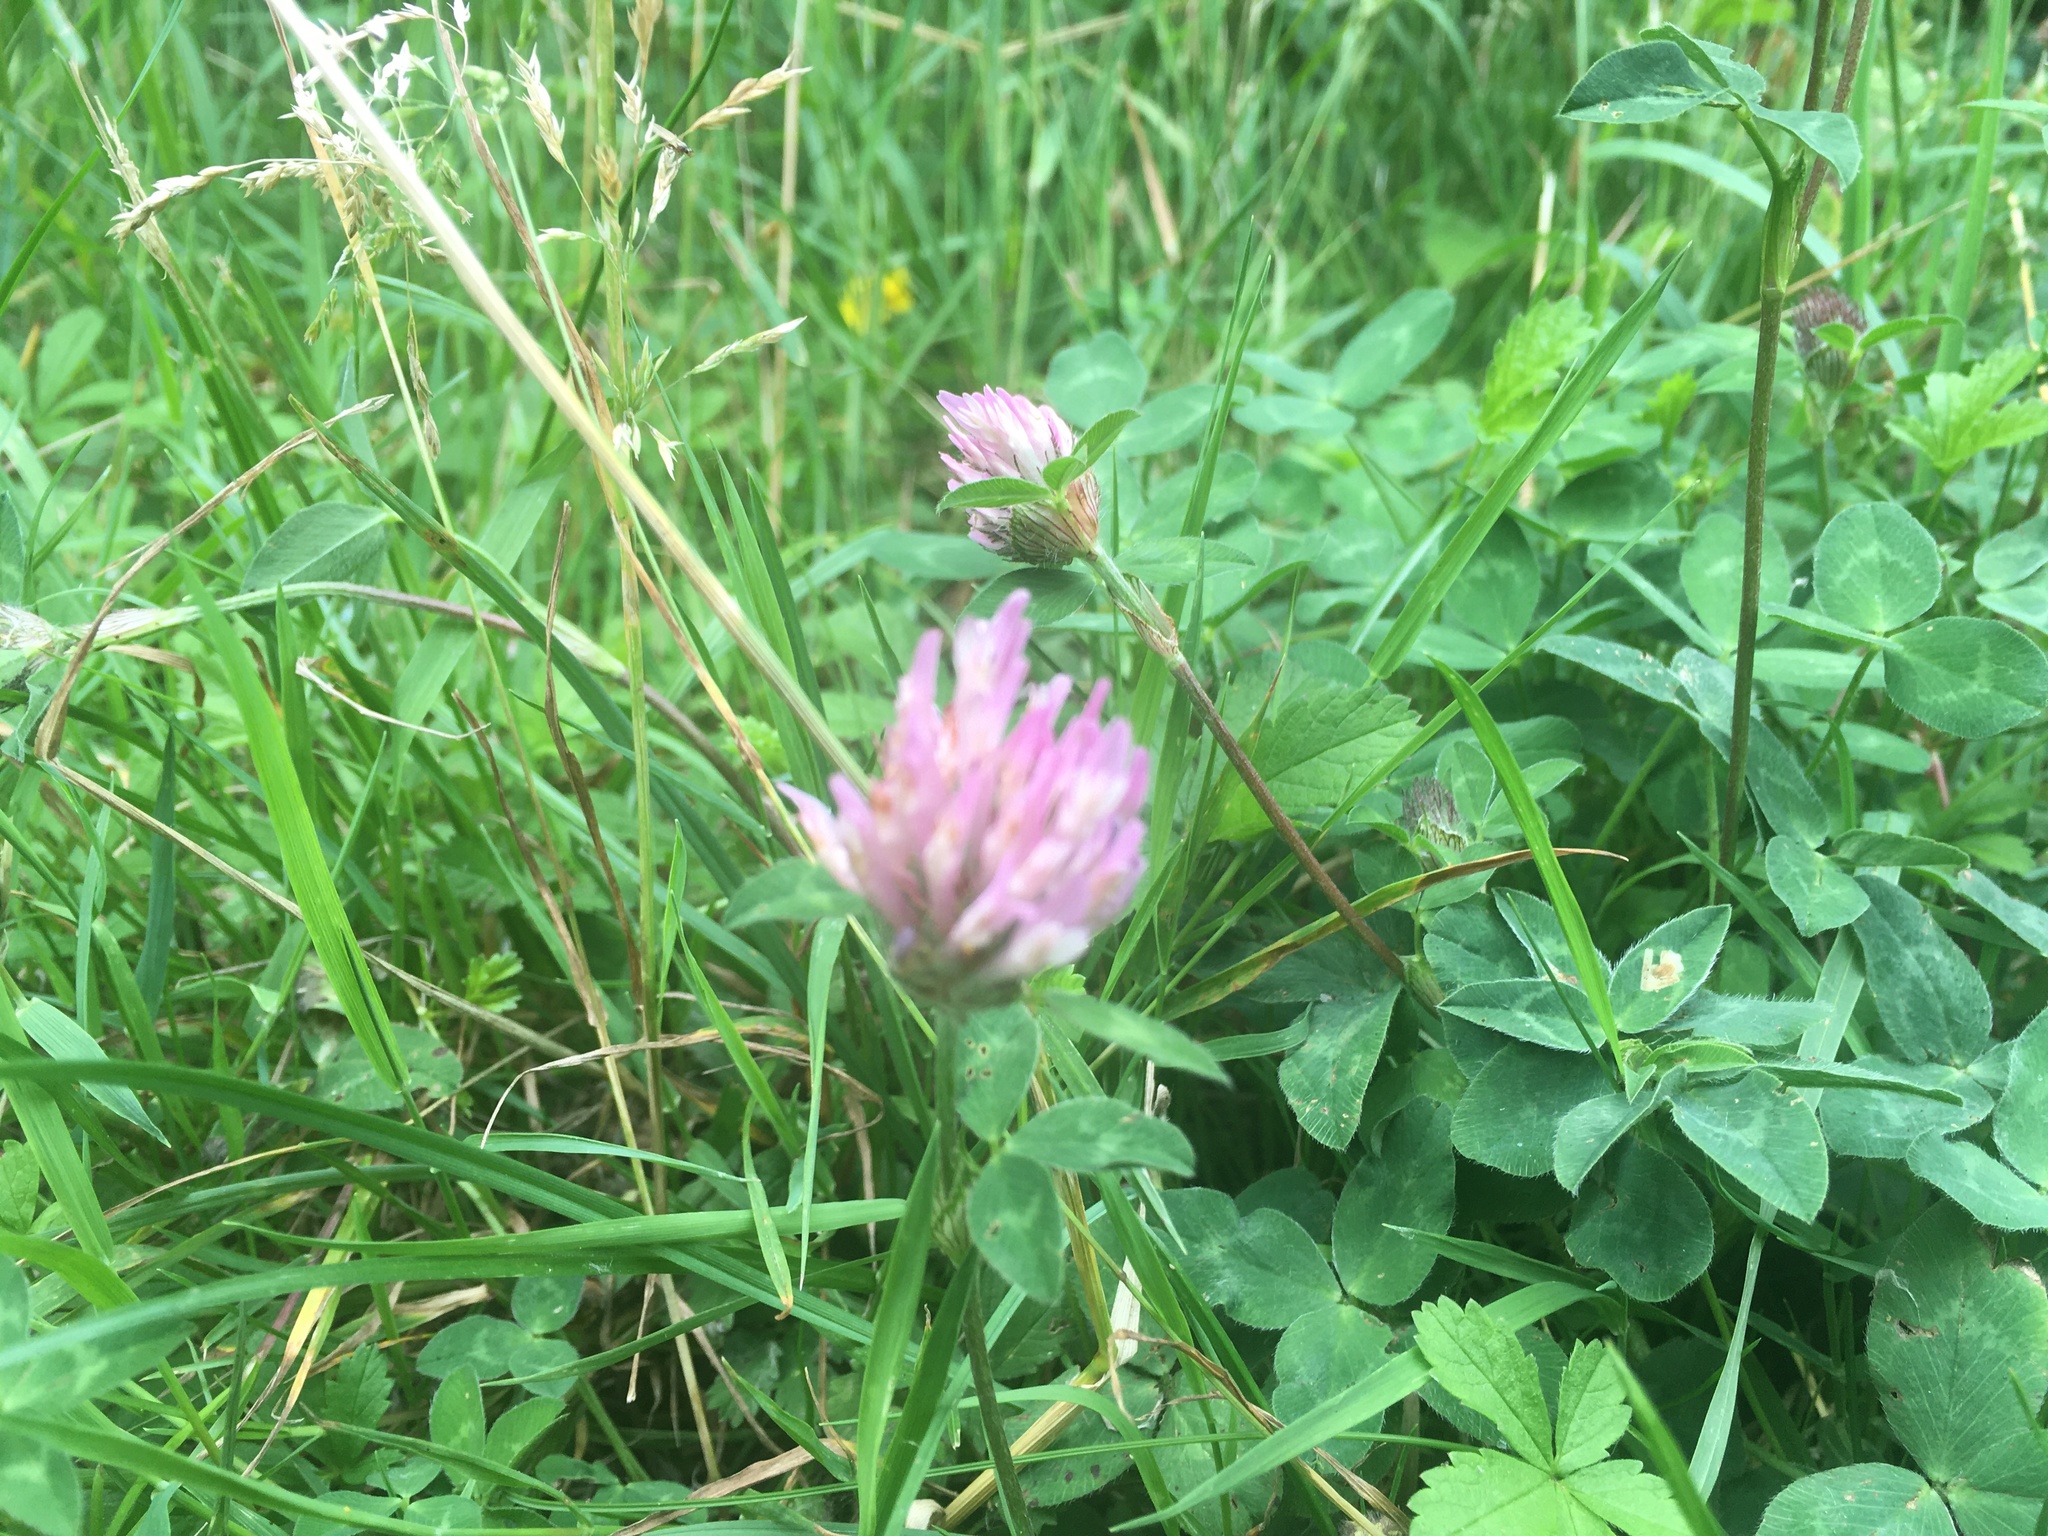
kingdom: Plantae
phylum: Tracheophyta
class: Magnoliopsida
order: Fabales
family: Fabaceae
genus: Trifolium
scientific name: Trifolium pratense
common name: Red clover
